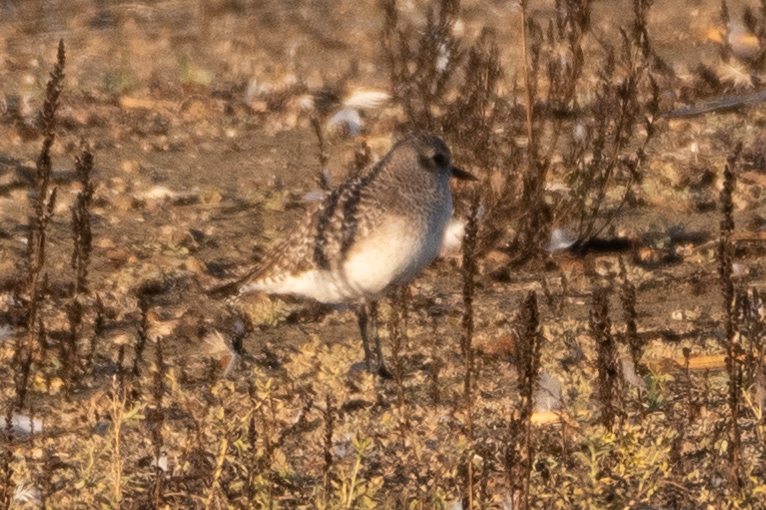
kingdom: Animalia
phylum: Chordata
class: Aves
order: Charadriiformes
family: Charadriidae
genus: Pluvialis
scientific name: Pluvialis squatarola
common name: Grey plover
